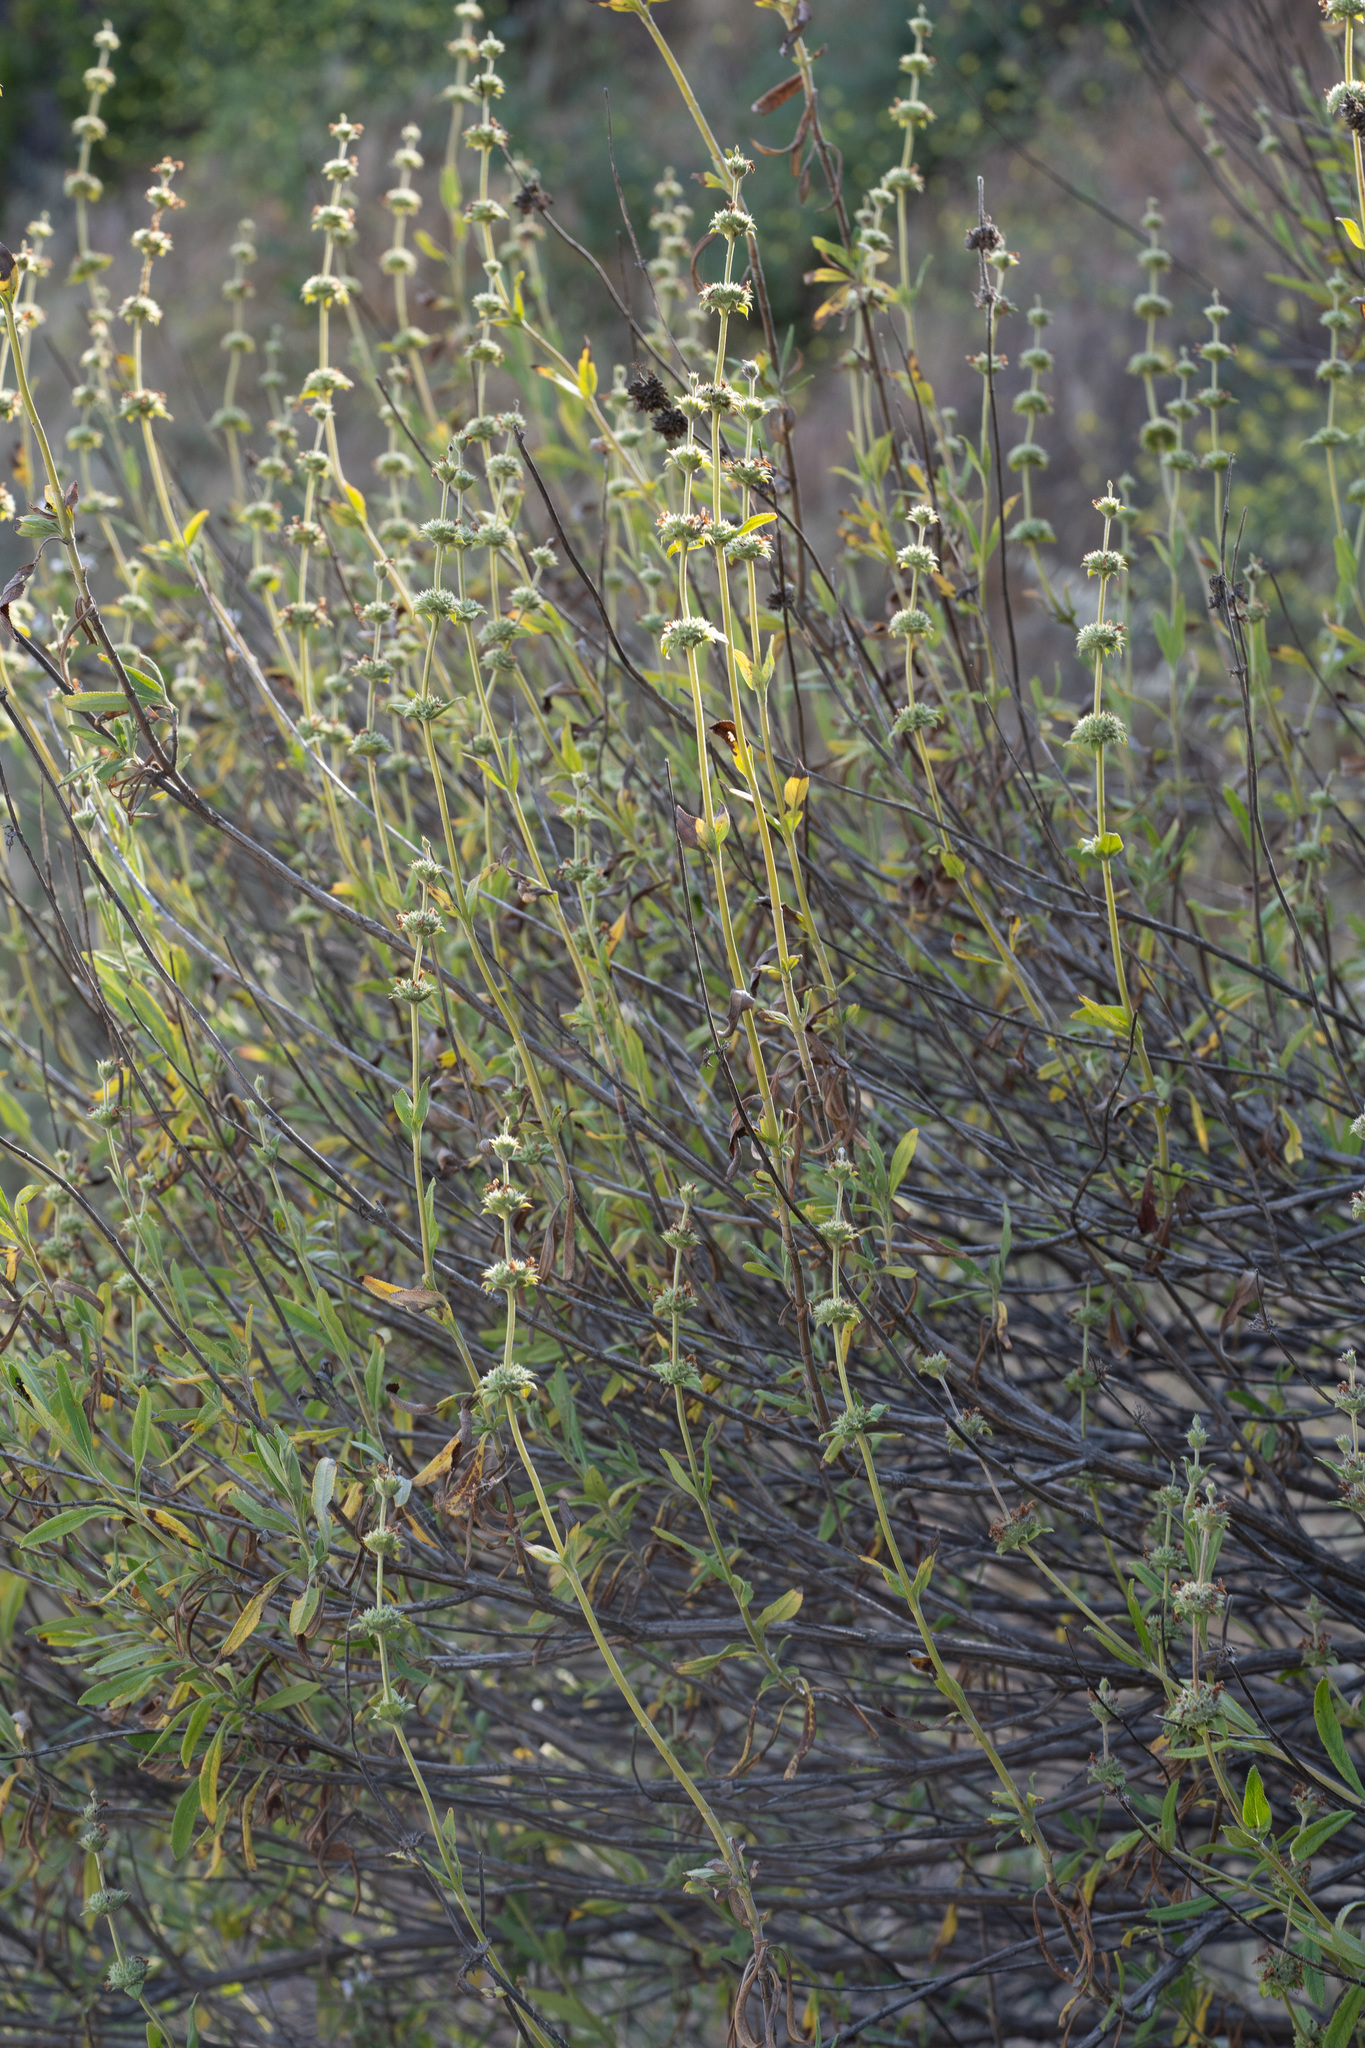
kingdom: Plantae
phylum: Tracheophyta
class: Magnoliopsida
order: Lamiales
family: Lamiaceae
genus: Salvia
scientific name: Salvia mellifera
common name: Black sage
